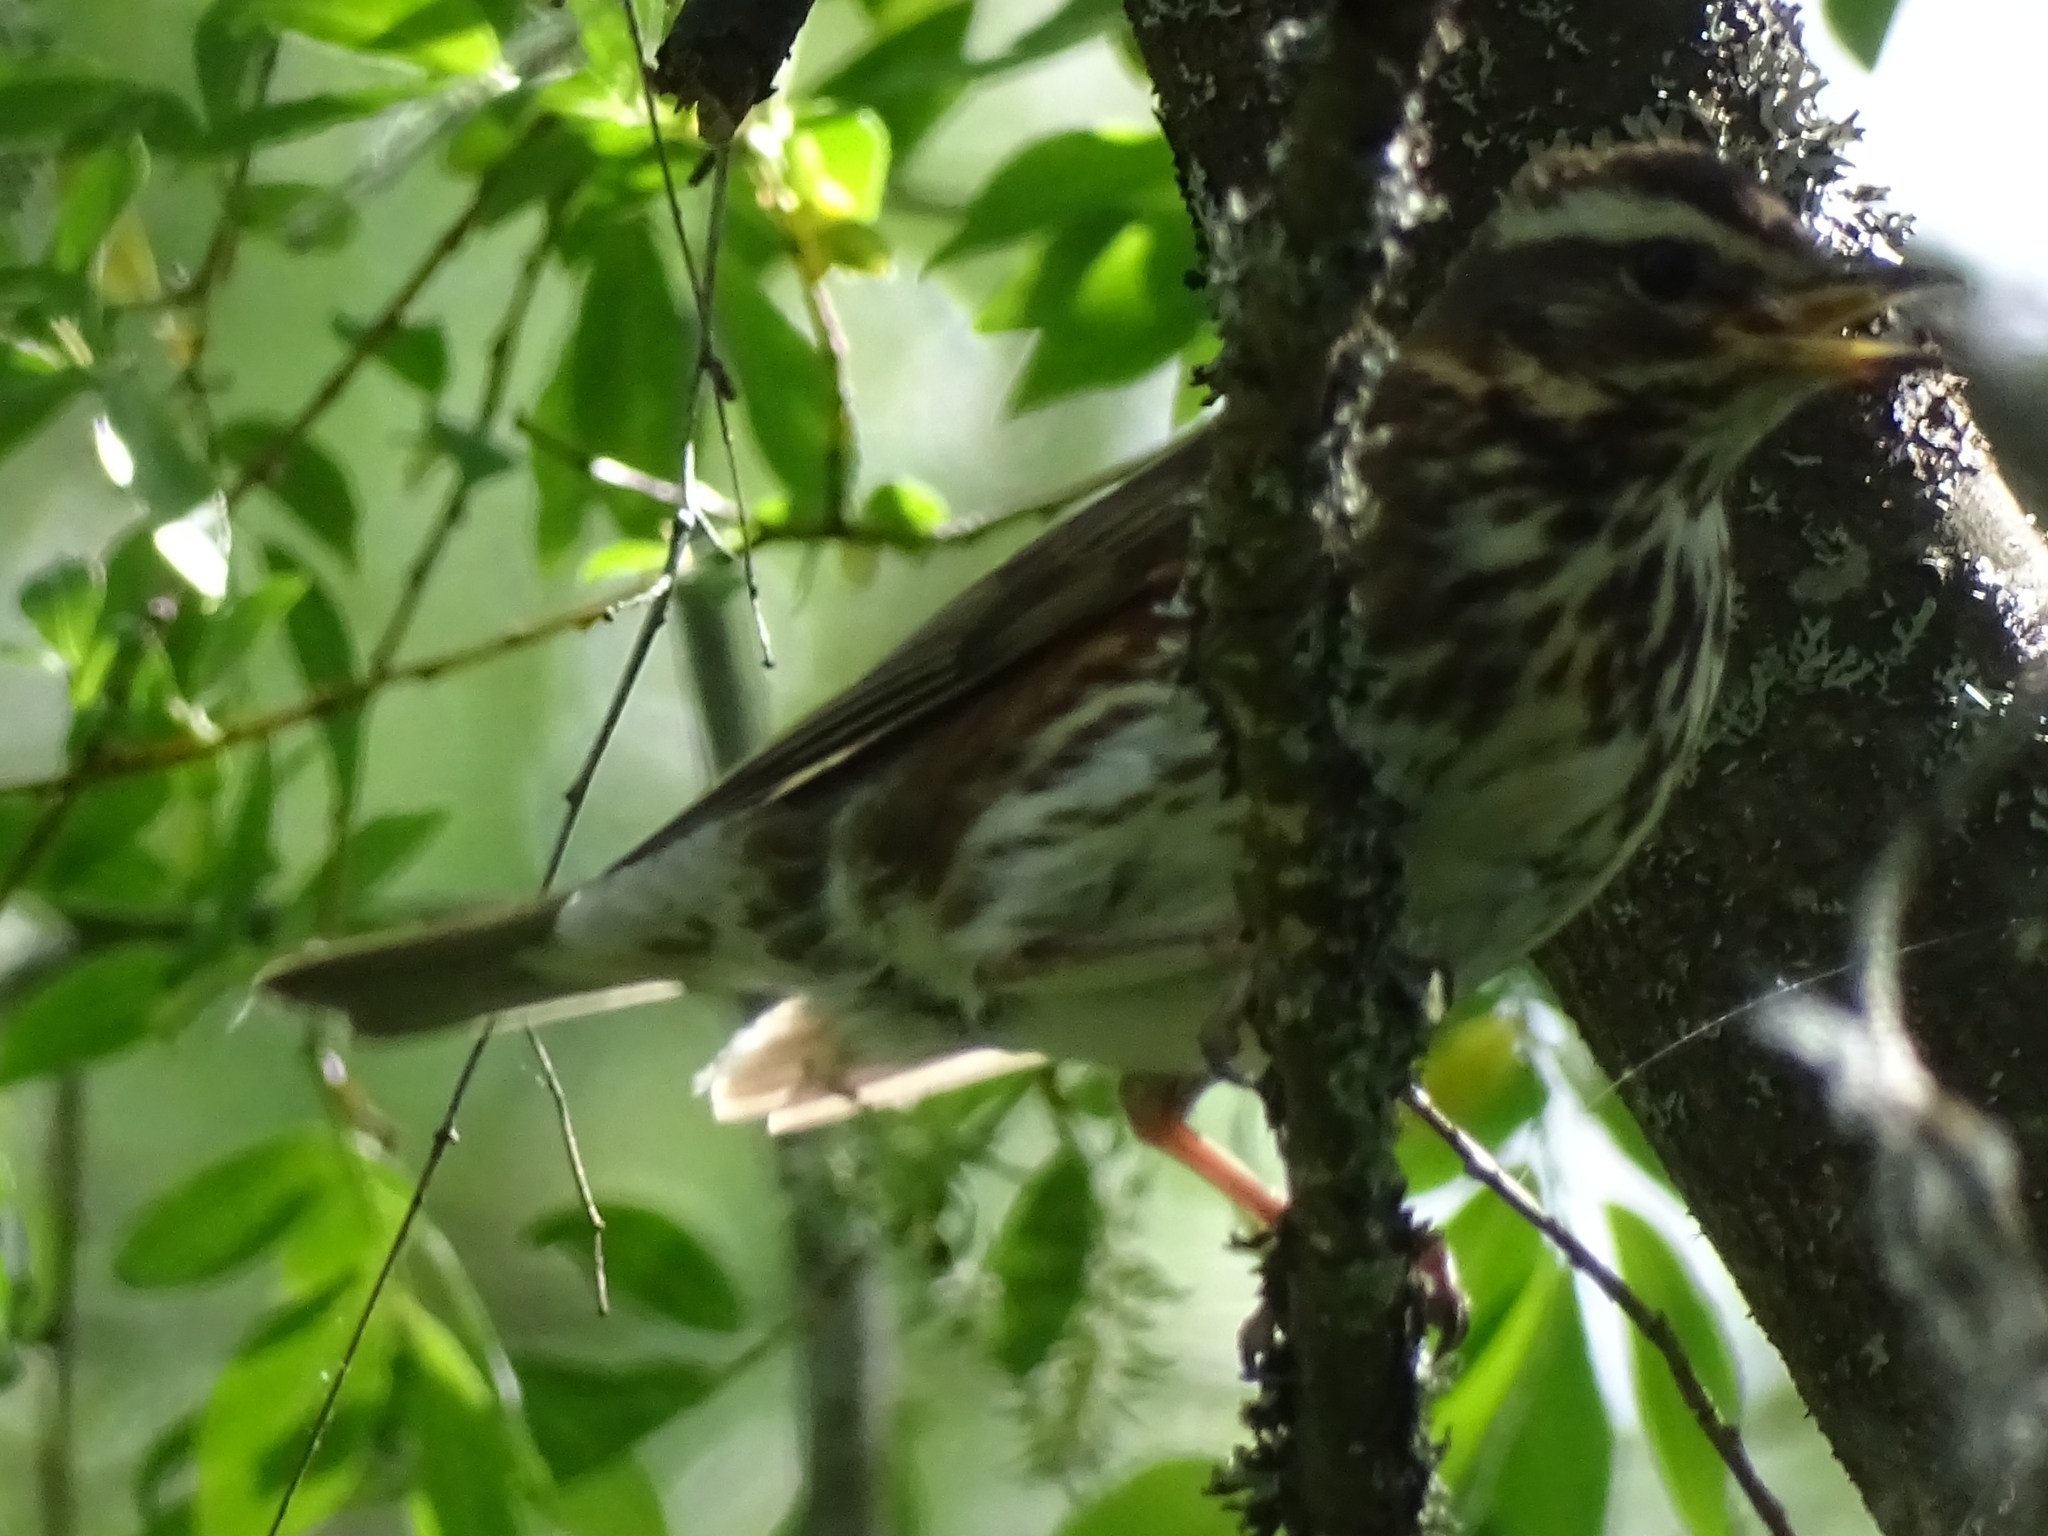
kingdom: Animalia
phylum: Chordata
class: Aves
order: Passeriformes
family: Turdidae
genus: Turdus
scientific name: Turdus iliacus
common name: Redwing
